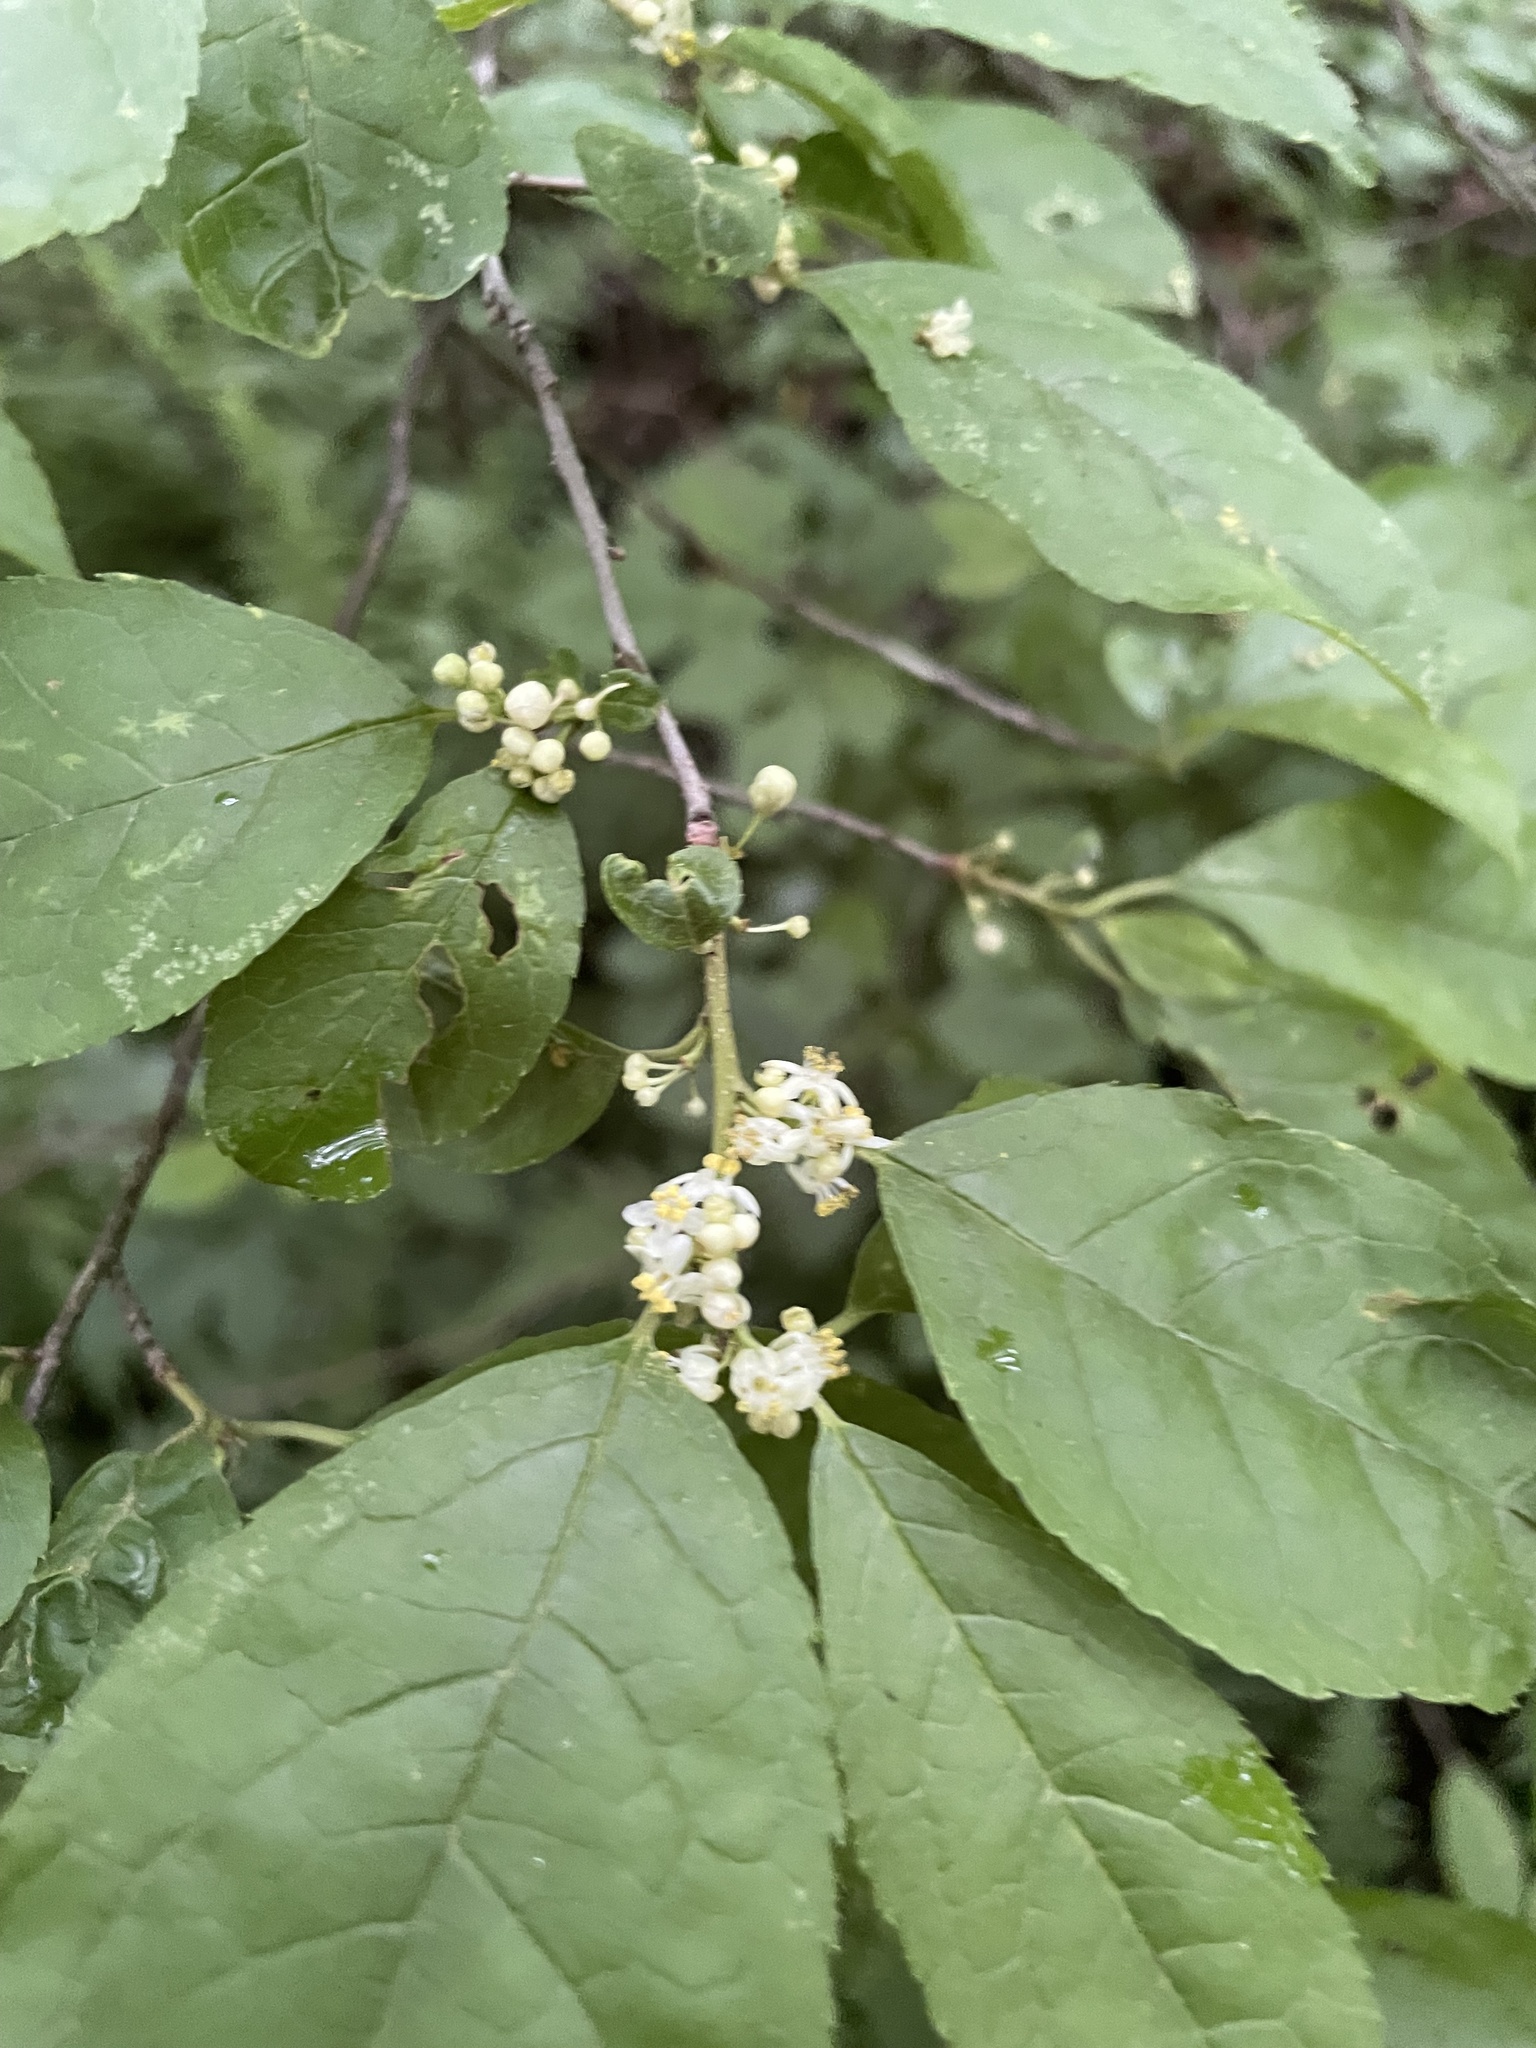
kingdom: Plantae
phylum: Tracheophyta
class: Magnoliopsida
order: Aquifoliales
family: Aquifoliaceae
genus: Ilex
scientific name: Ilex verticillata
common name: Virginia winterberry
